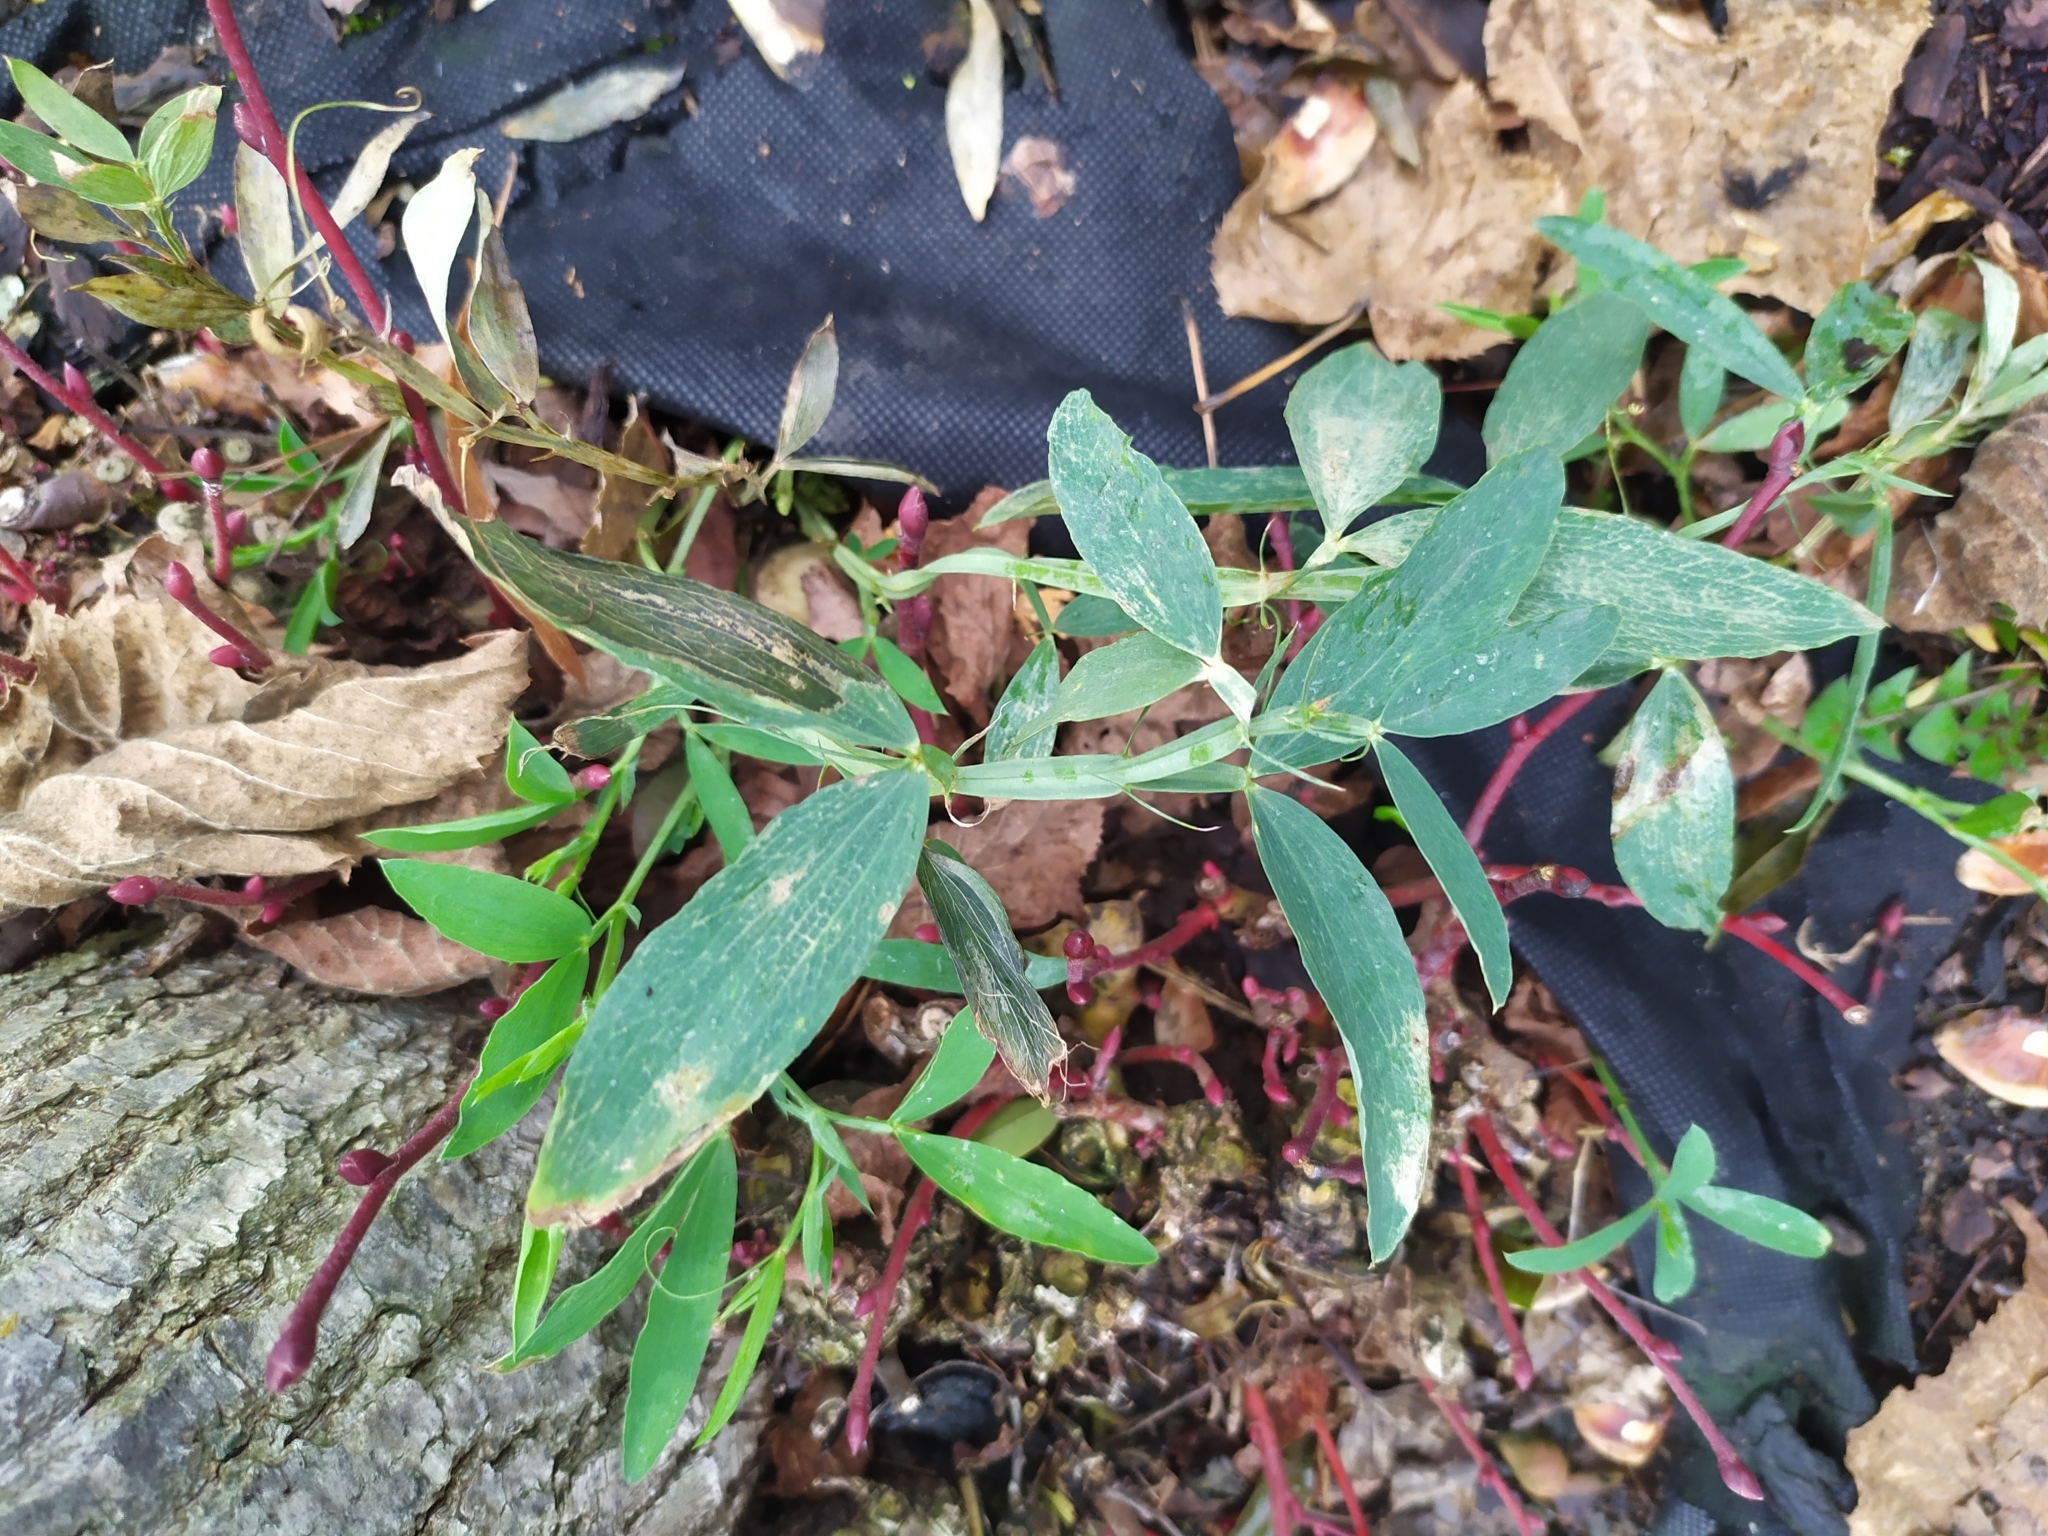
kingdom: Plantae
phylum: Tracheophyta
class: Magnoliopsida
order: Fabales
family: Fabaceae
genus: Lathyrus
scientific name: Lathyrus latifolius
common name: Perennial pea
